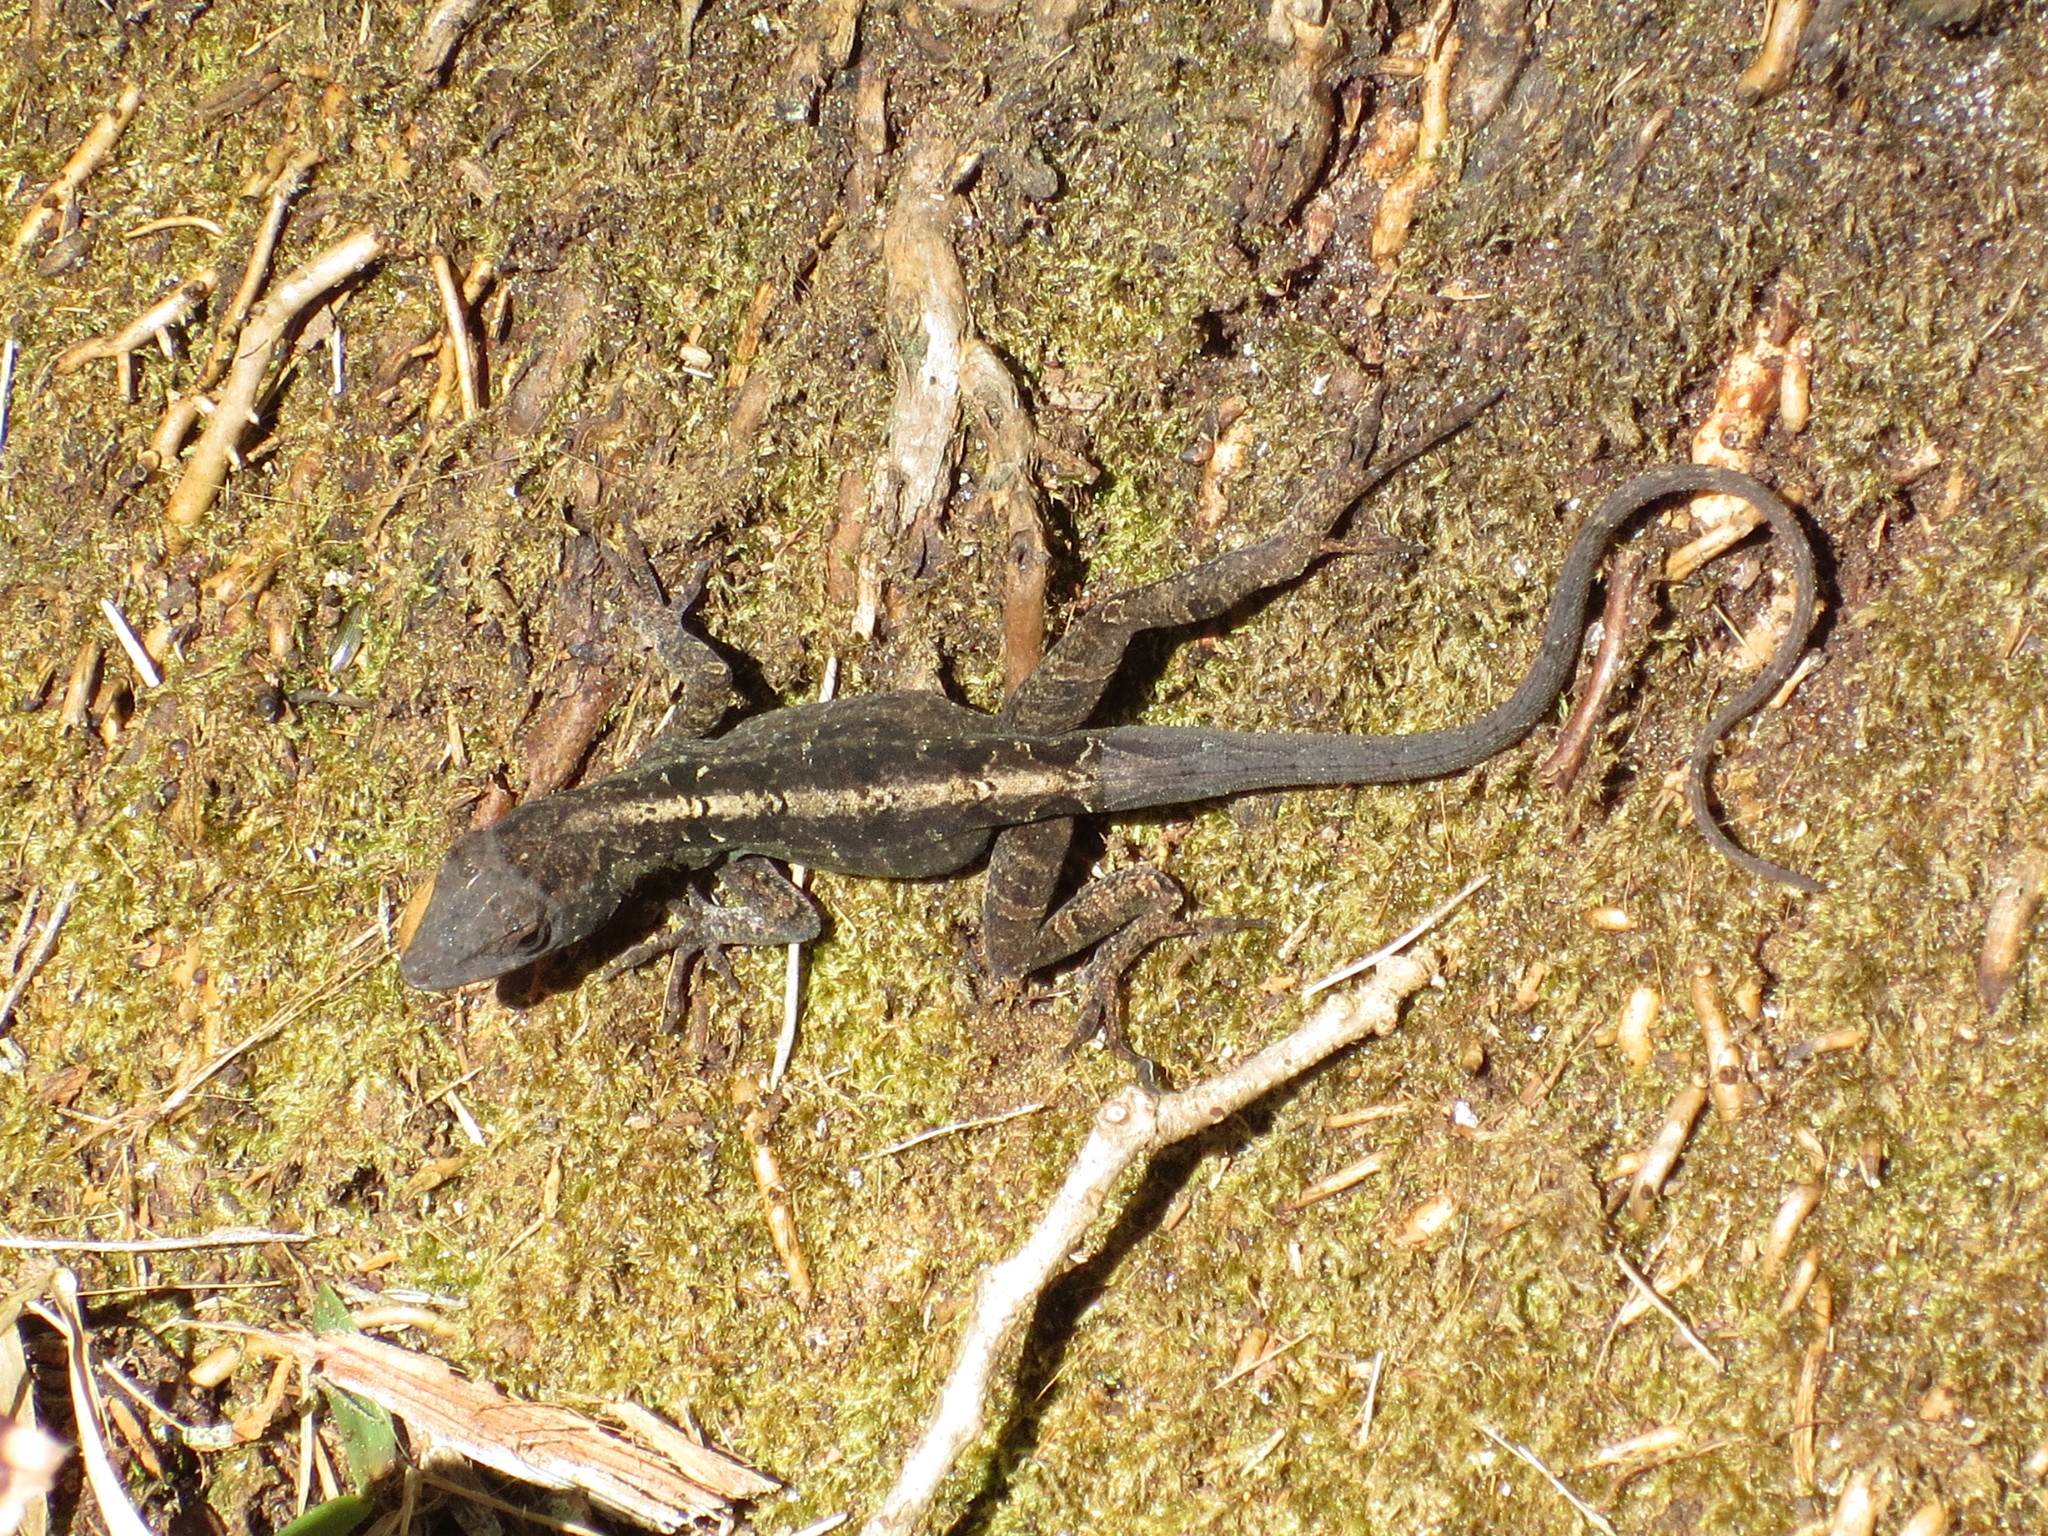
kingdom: Animalia
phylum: Chordata
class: Squamata
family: Dactyloidae
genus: Anolis
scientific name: Anolis sagrei
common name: Brown anole
